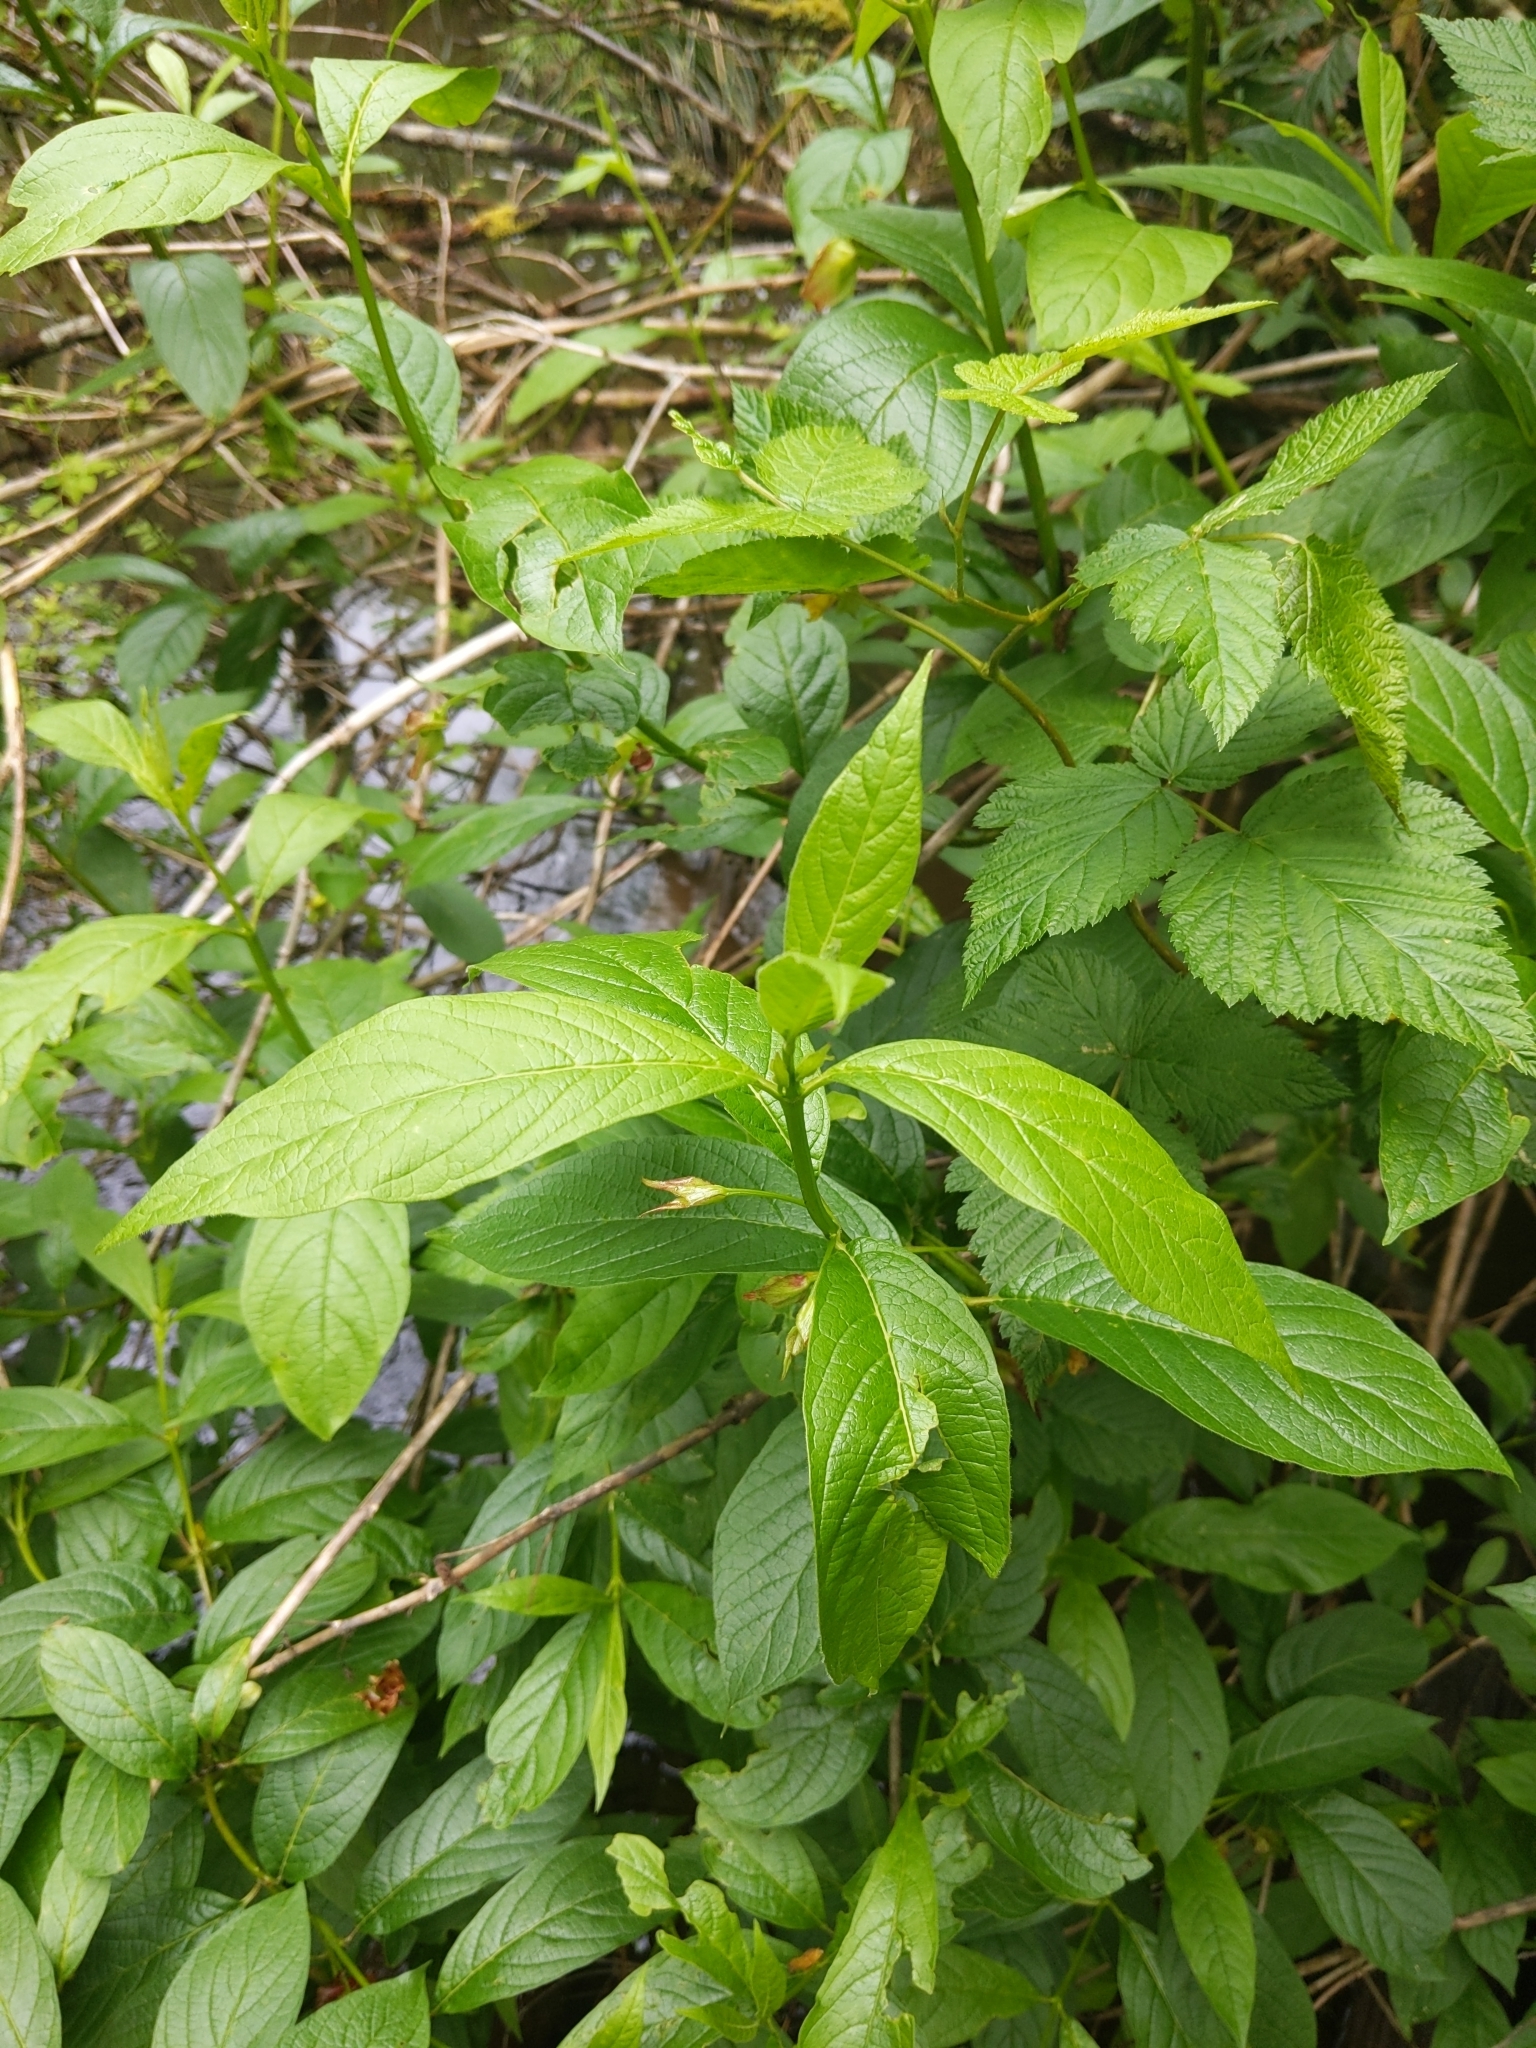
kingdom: Plantae
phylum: Tracheophyta
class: Magnoliopsida
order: Dipsacales
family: Caprifoliaceae
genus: Lonicera
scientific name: Lonicera involucrata
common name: Californian honeysuckle
